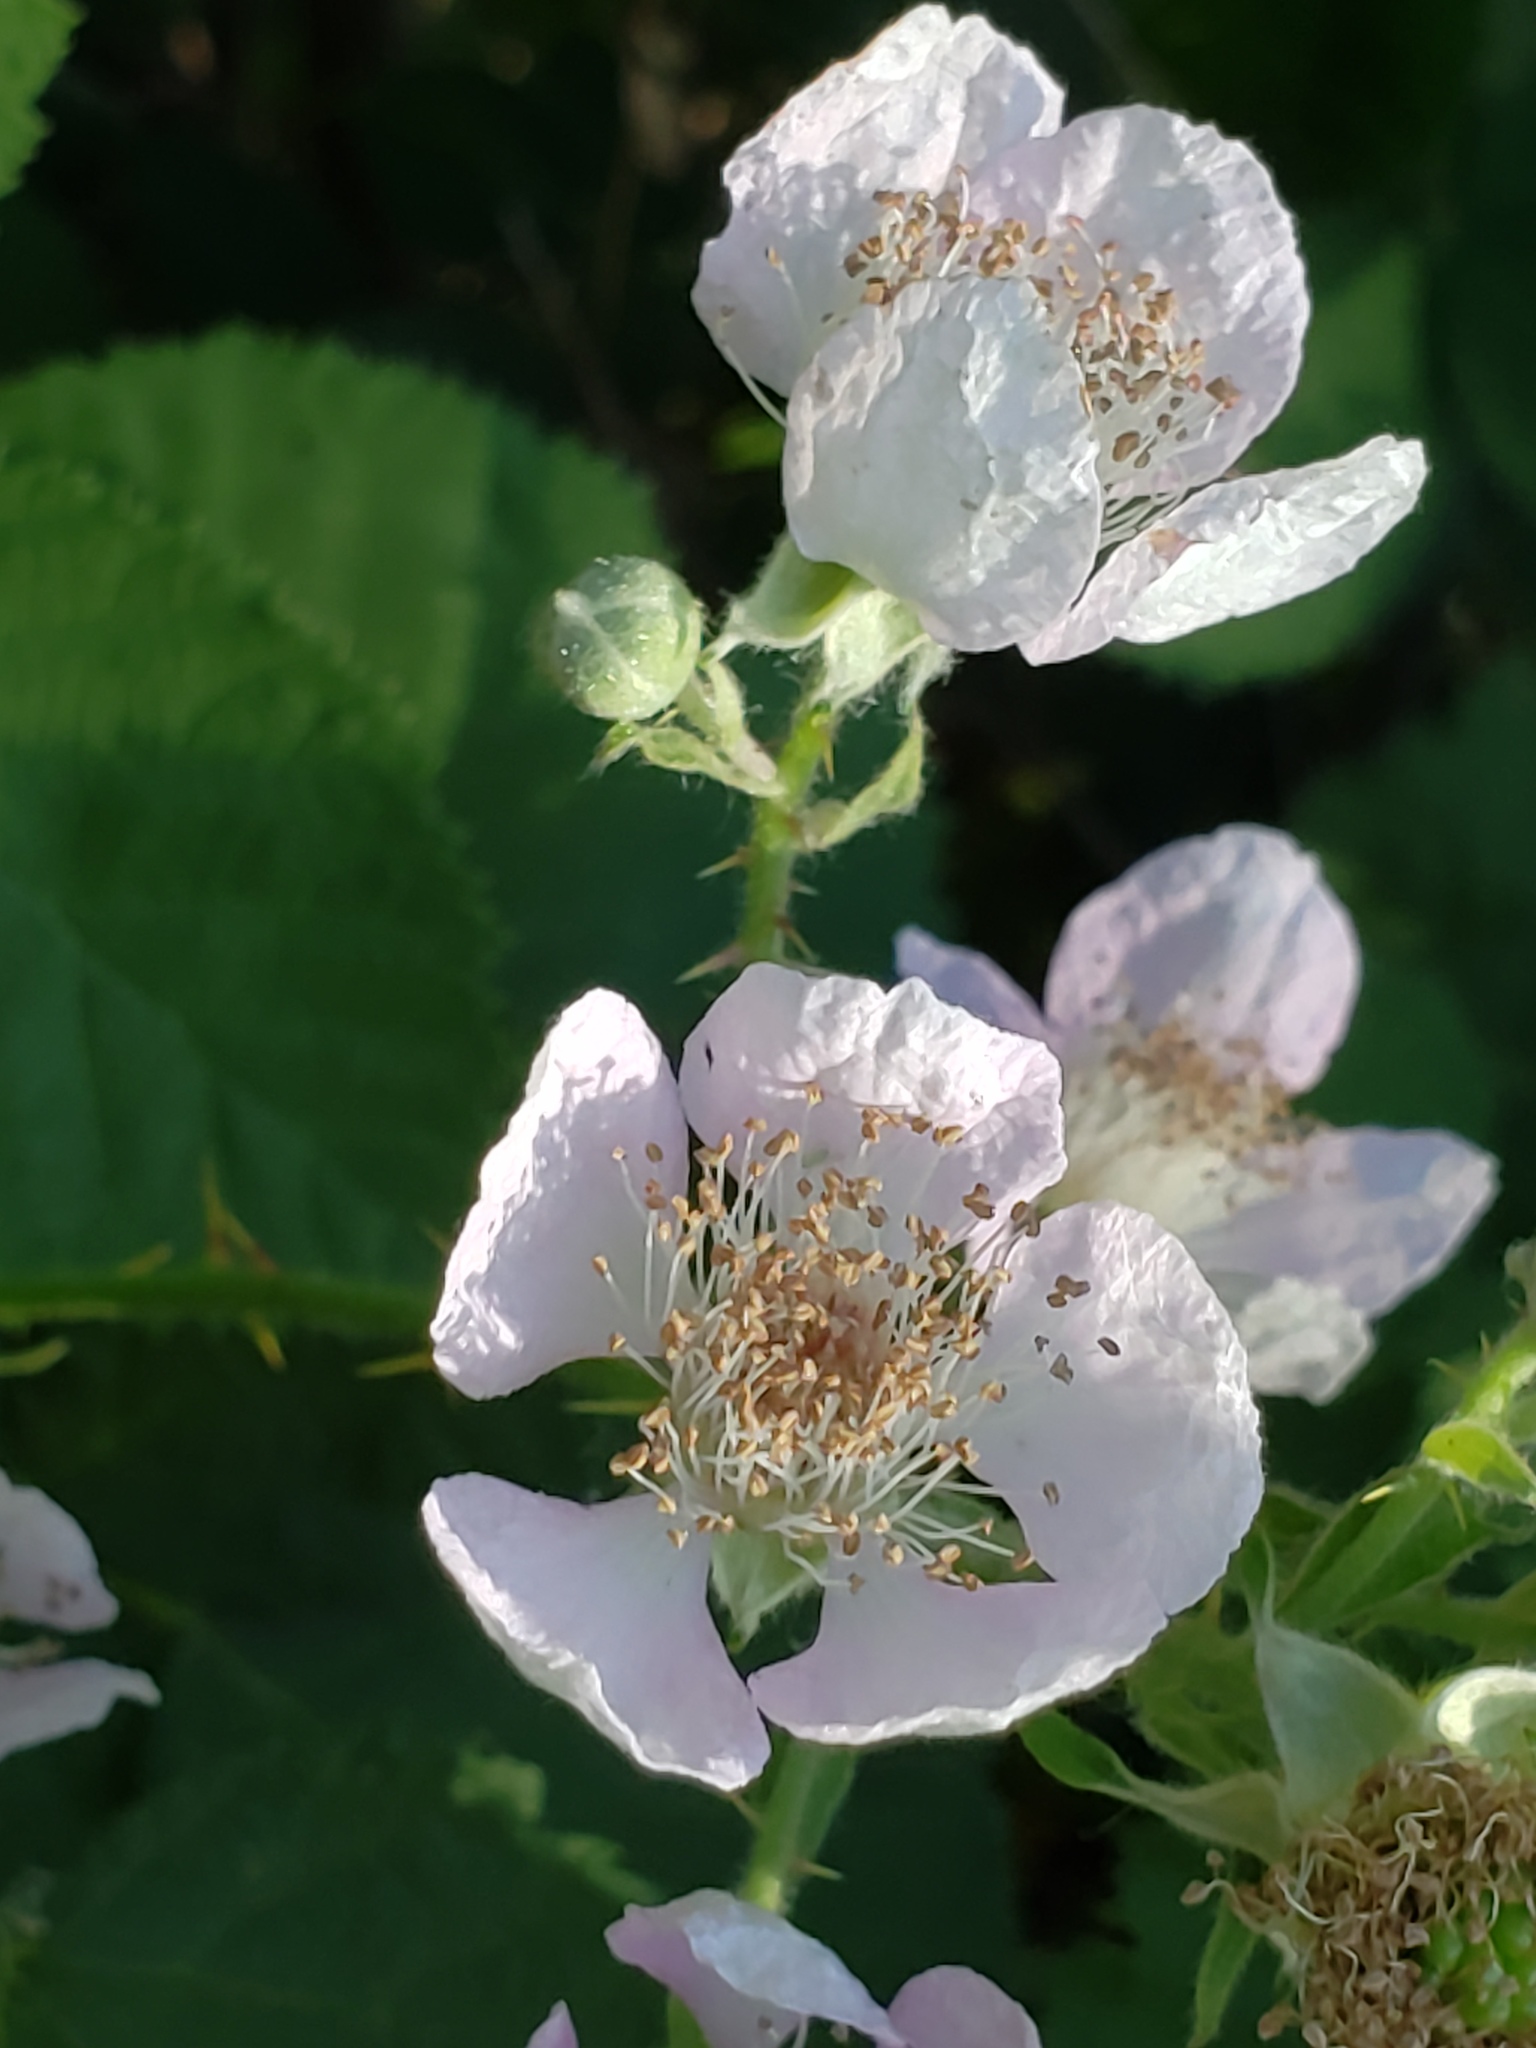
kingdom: Plantae
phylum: Tracheophyta
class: Magnoliopsida
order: Rosales
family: Rosaceae
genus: Rubus
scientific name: Rubus armeniacus
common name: Himalayan blackberry
